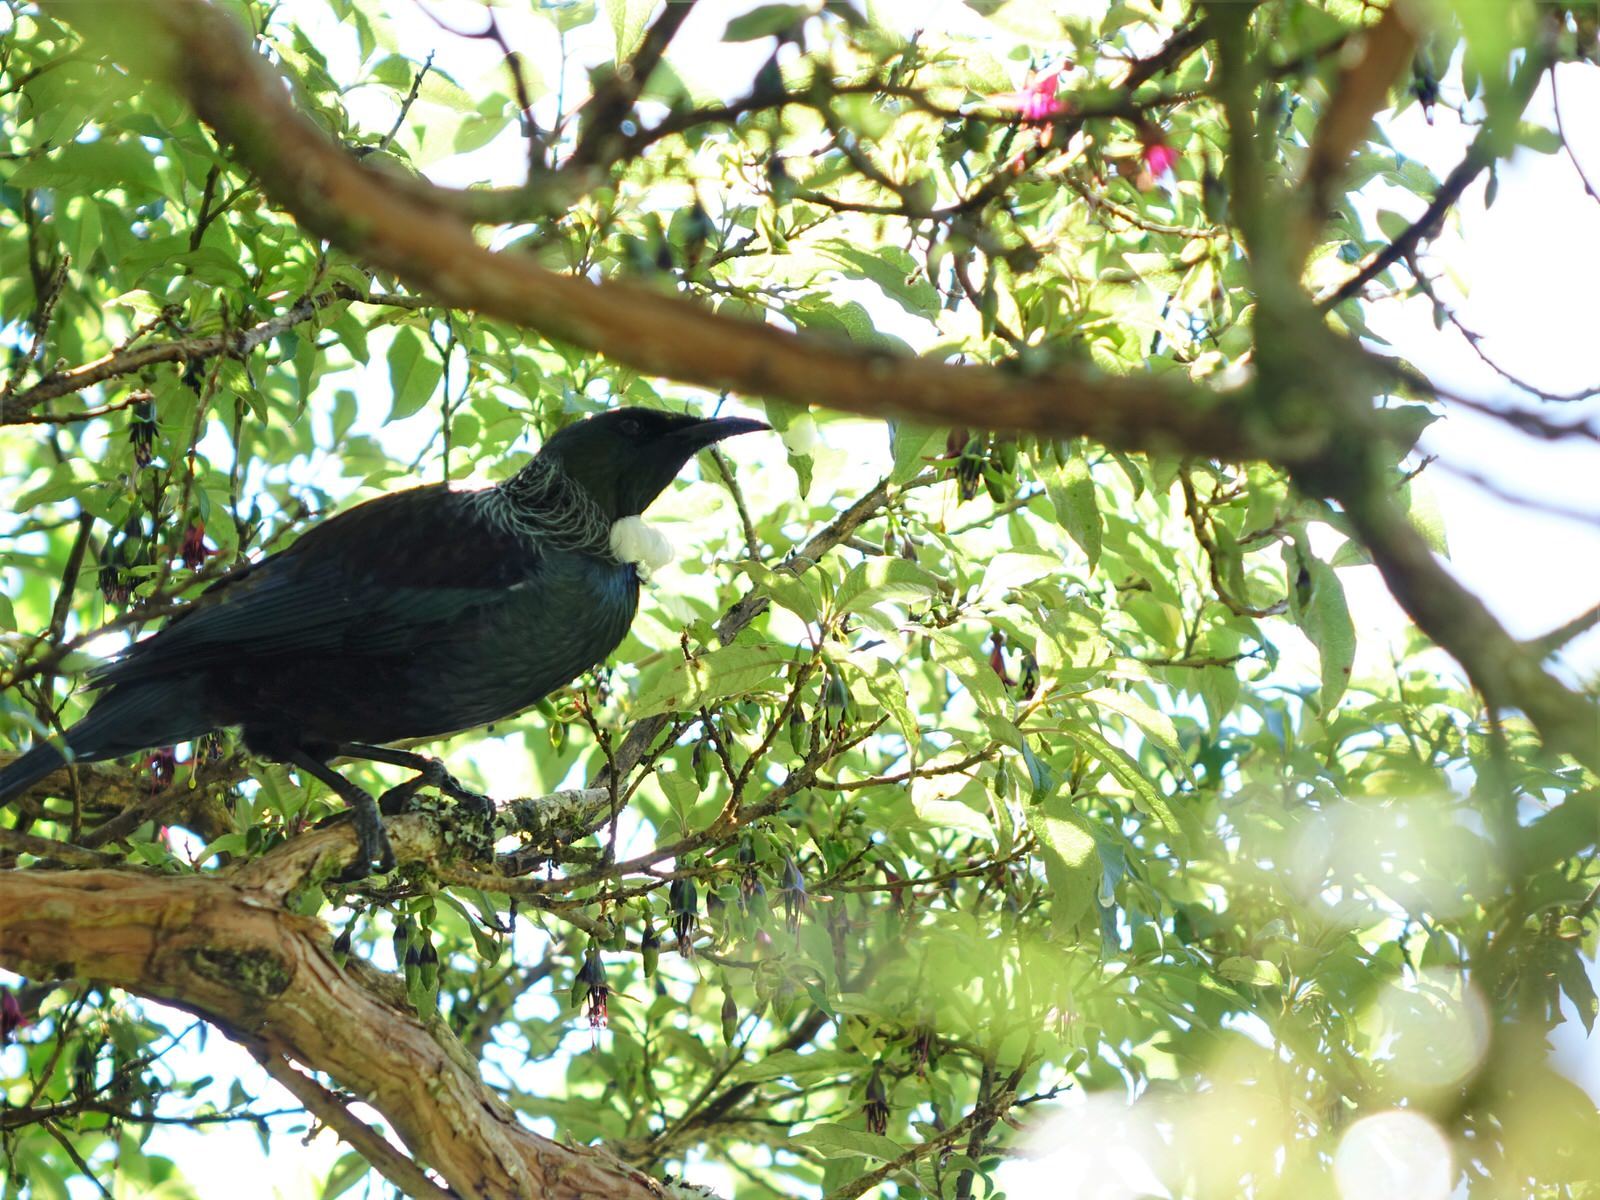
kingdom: Animalia
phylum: Chordata
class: Aves
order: Passeriformes
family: Meliphagidae
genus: Prosthemadera
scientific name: Prosthemadera novaeseelandiae
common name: Tui
